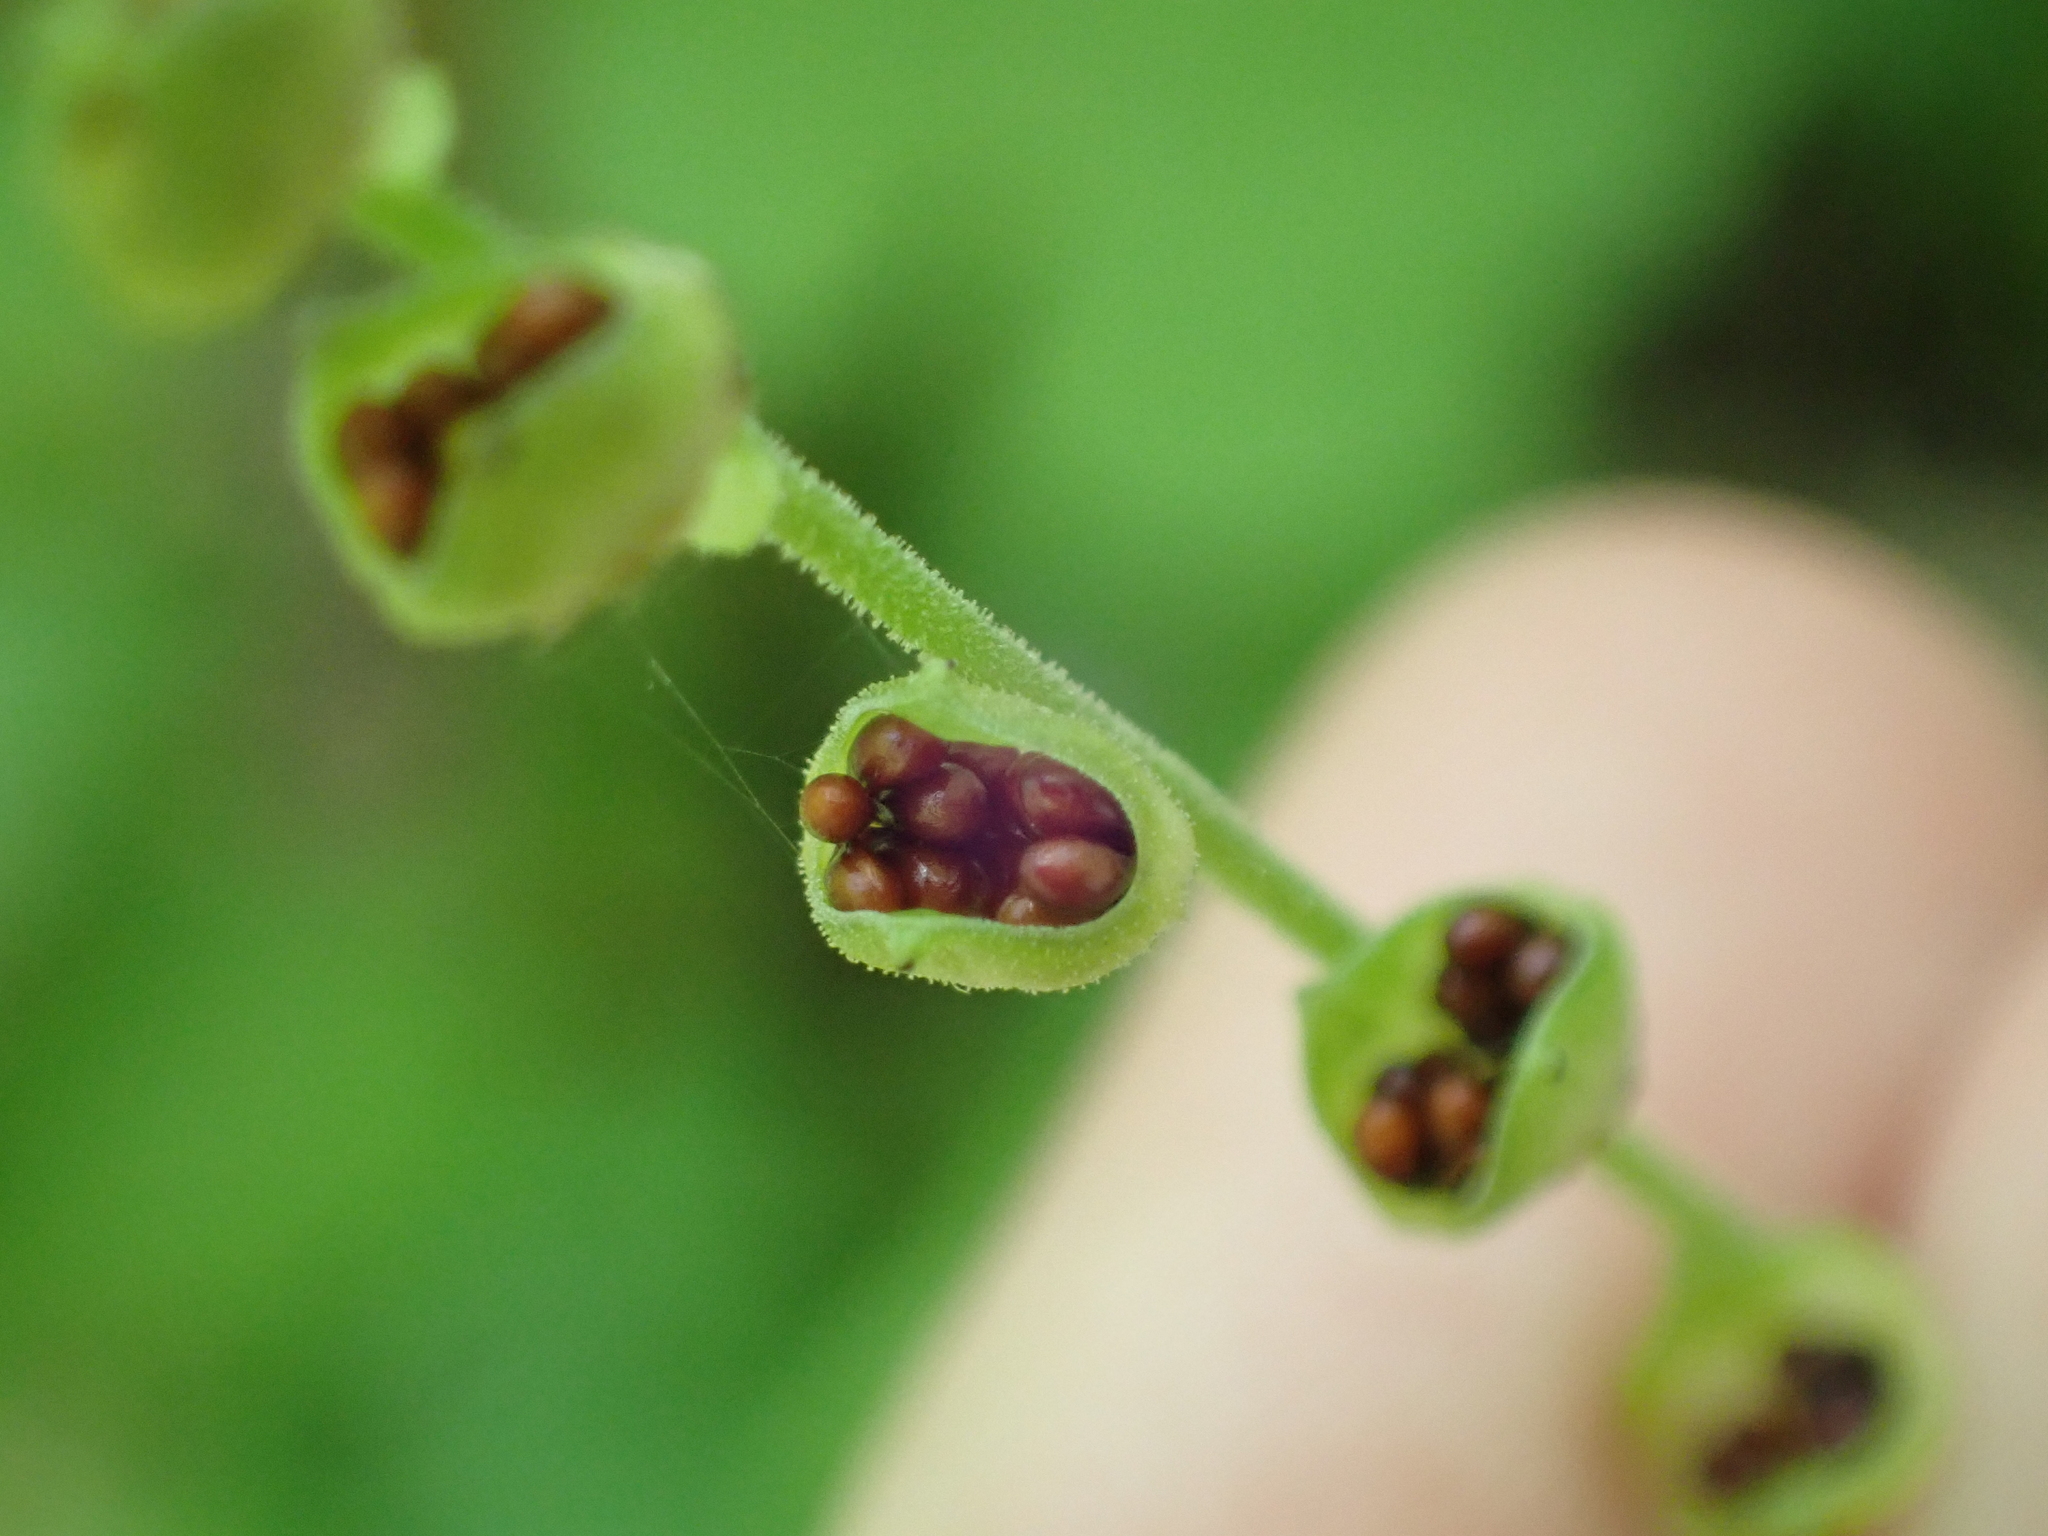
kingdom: Plantae
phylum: Tracheophyta
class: Magnoliopsida
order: Saxifragales
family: Saxifragaceae
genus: Mitella
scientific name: Mitella diphylla
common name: Coolwort
